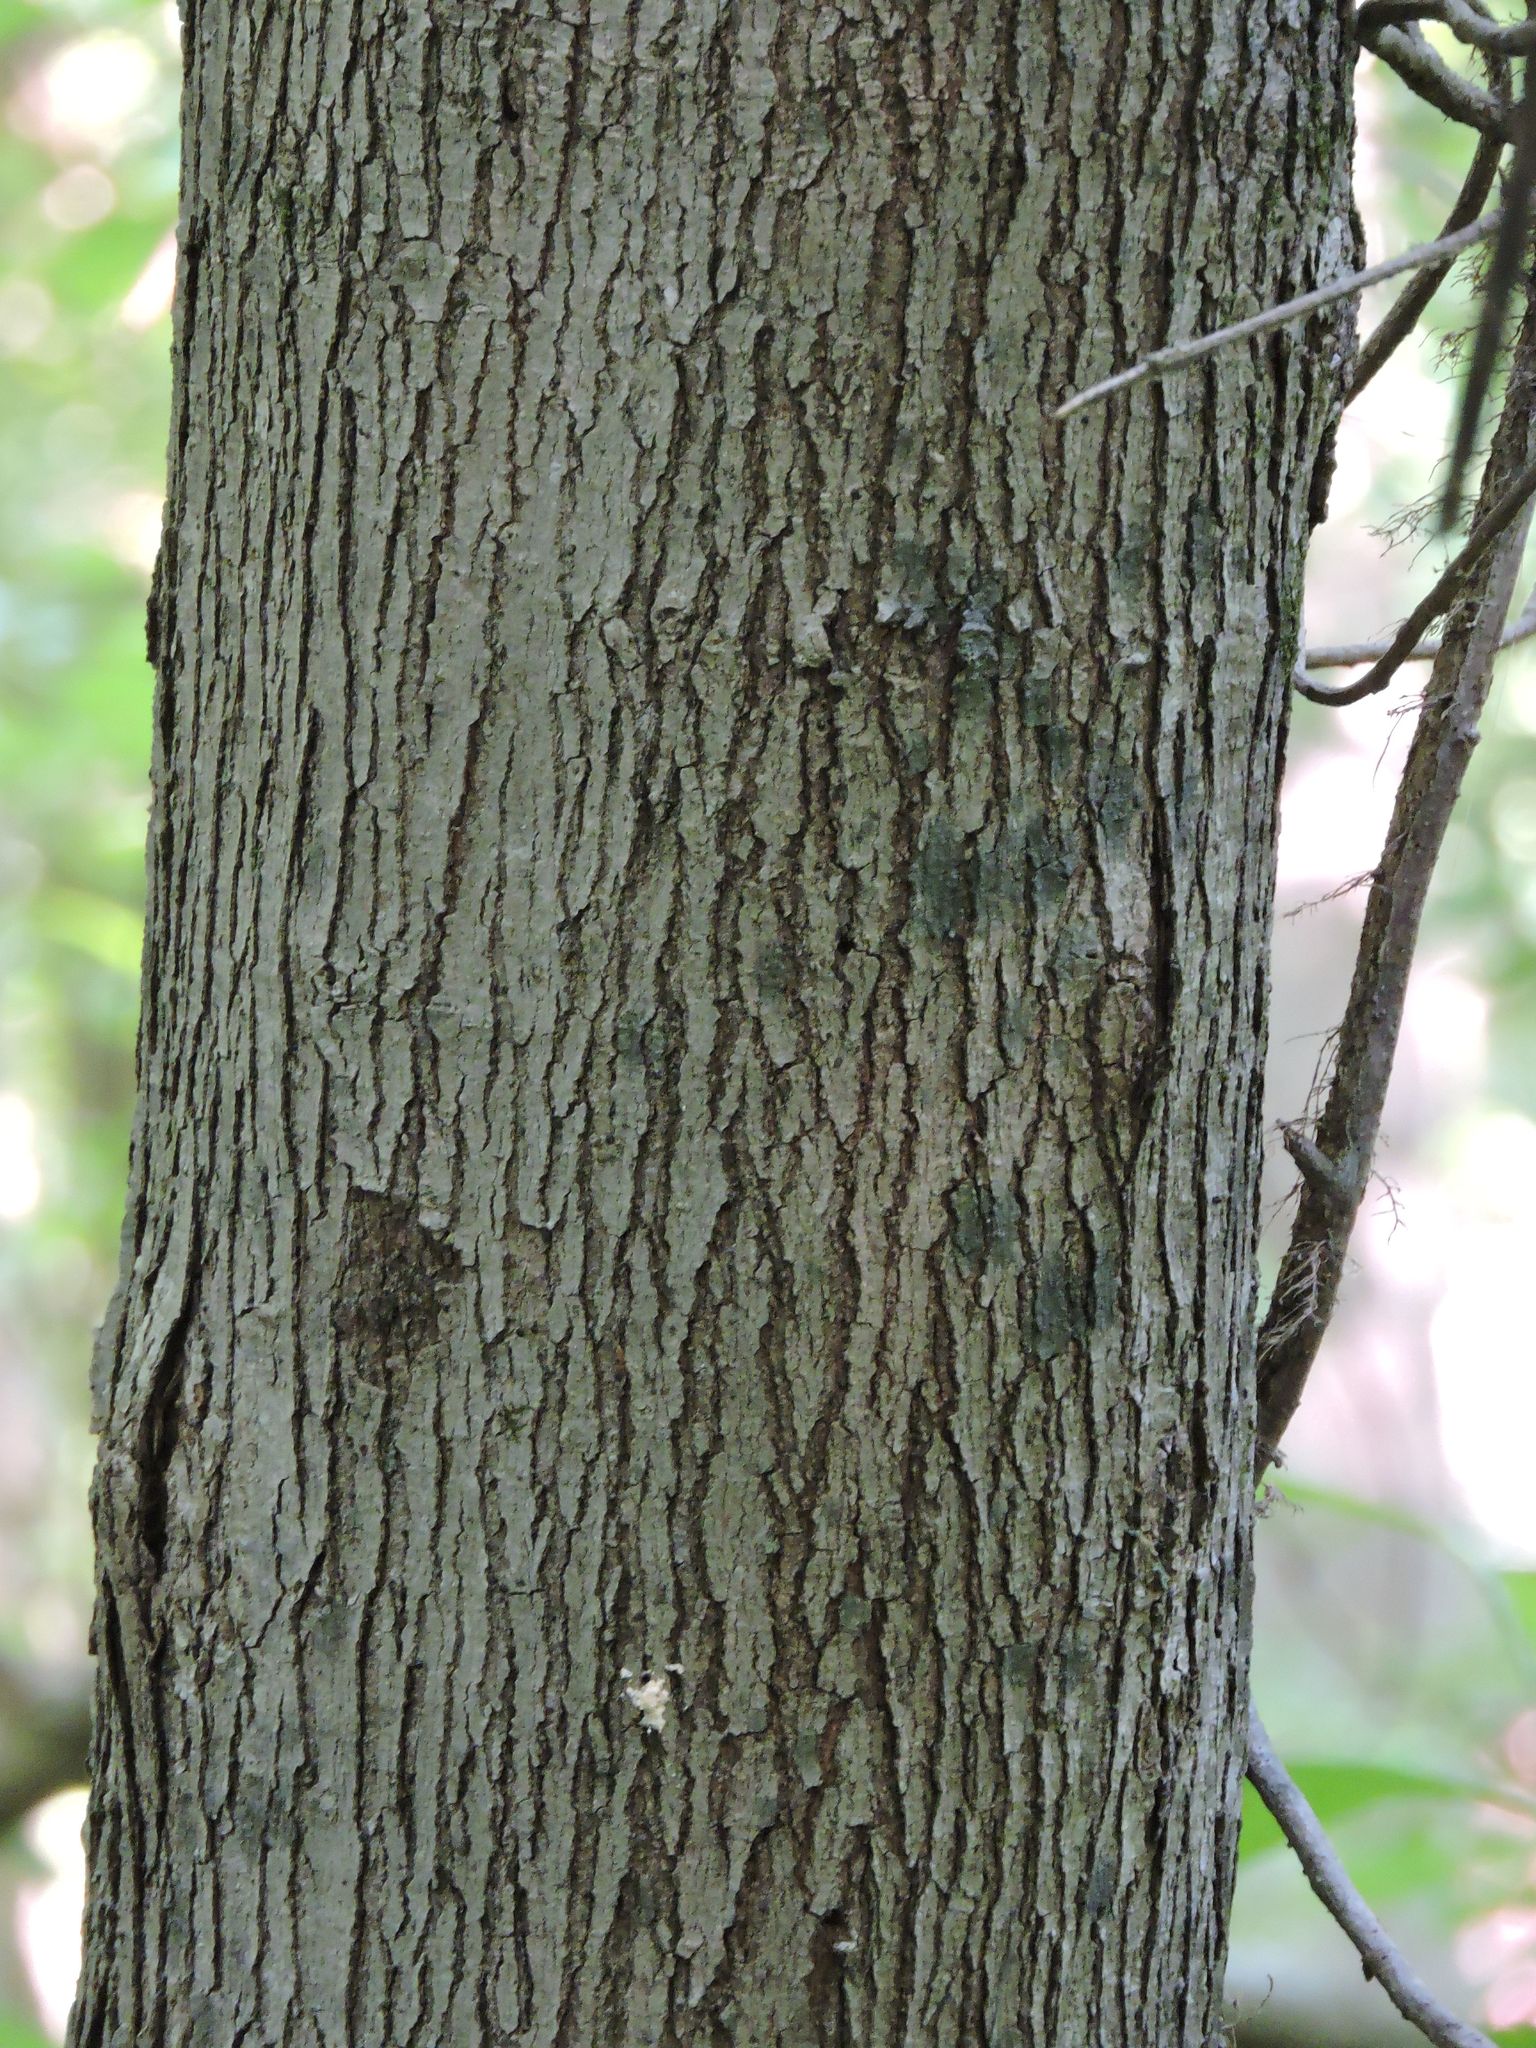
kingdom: Plantae
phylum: Tracheophyta
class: Magnoliopsida
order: Sapindales
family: Sapindaceae
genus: Acer
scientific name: Acer rubrum
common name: Red maple
